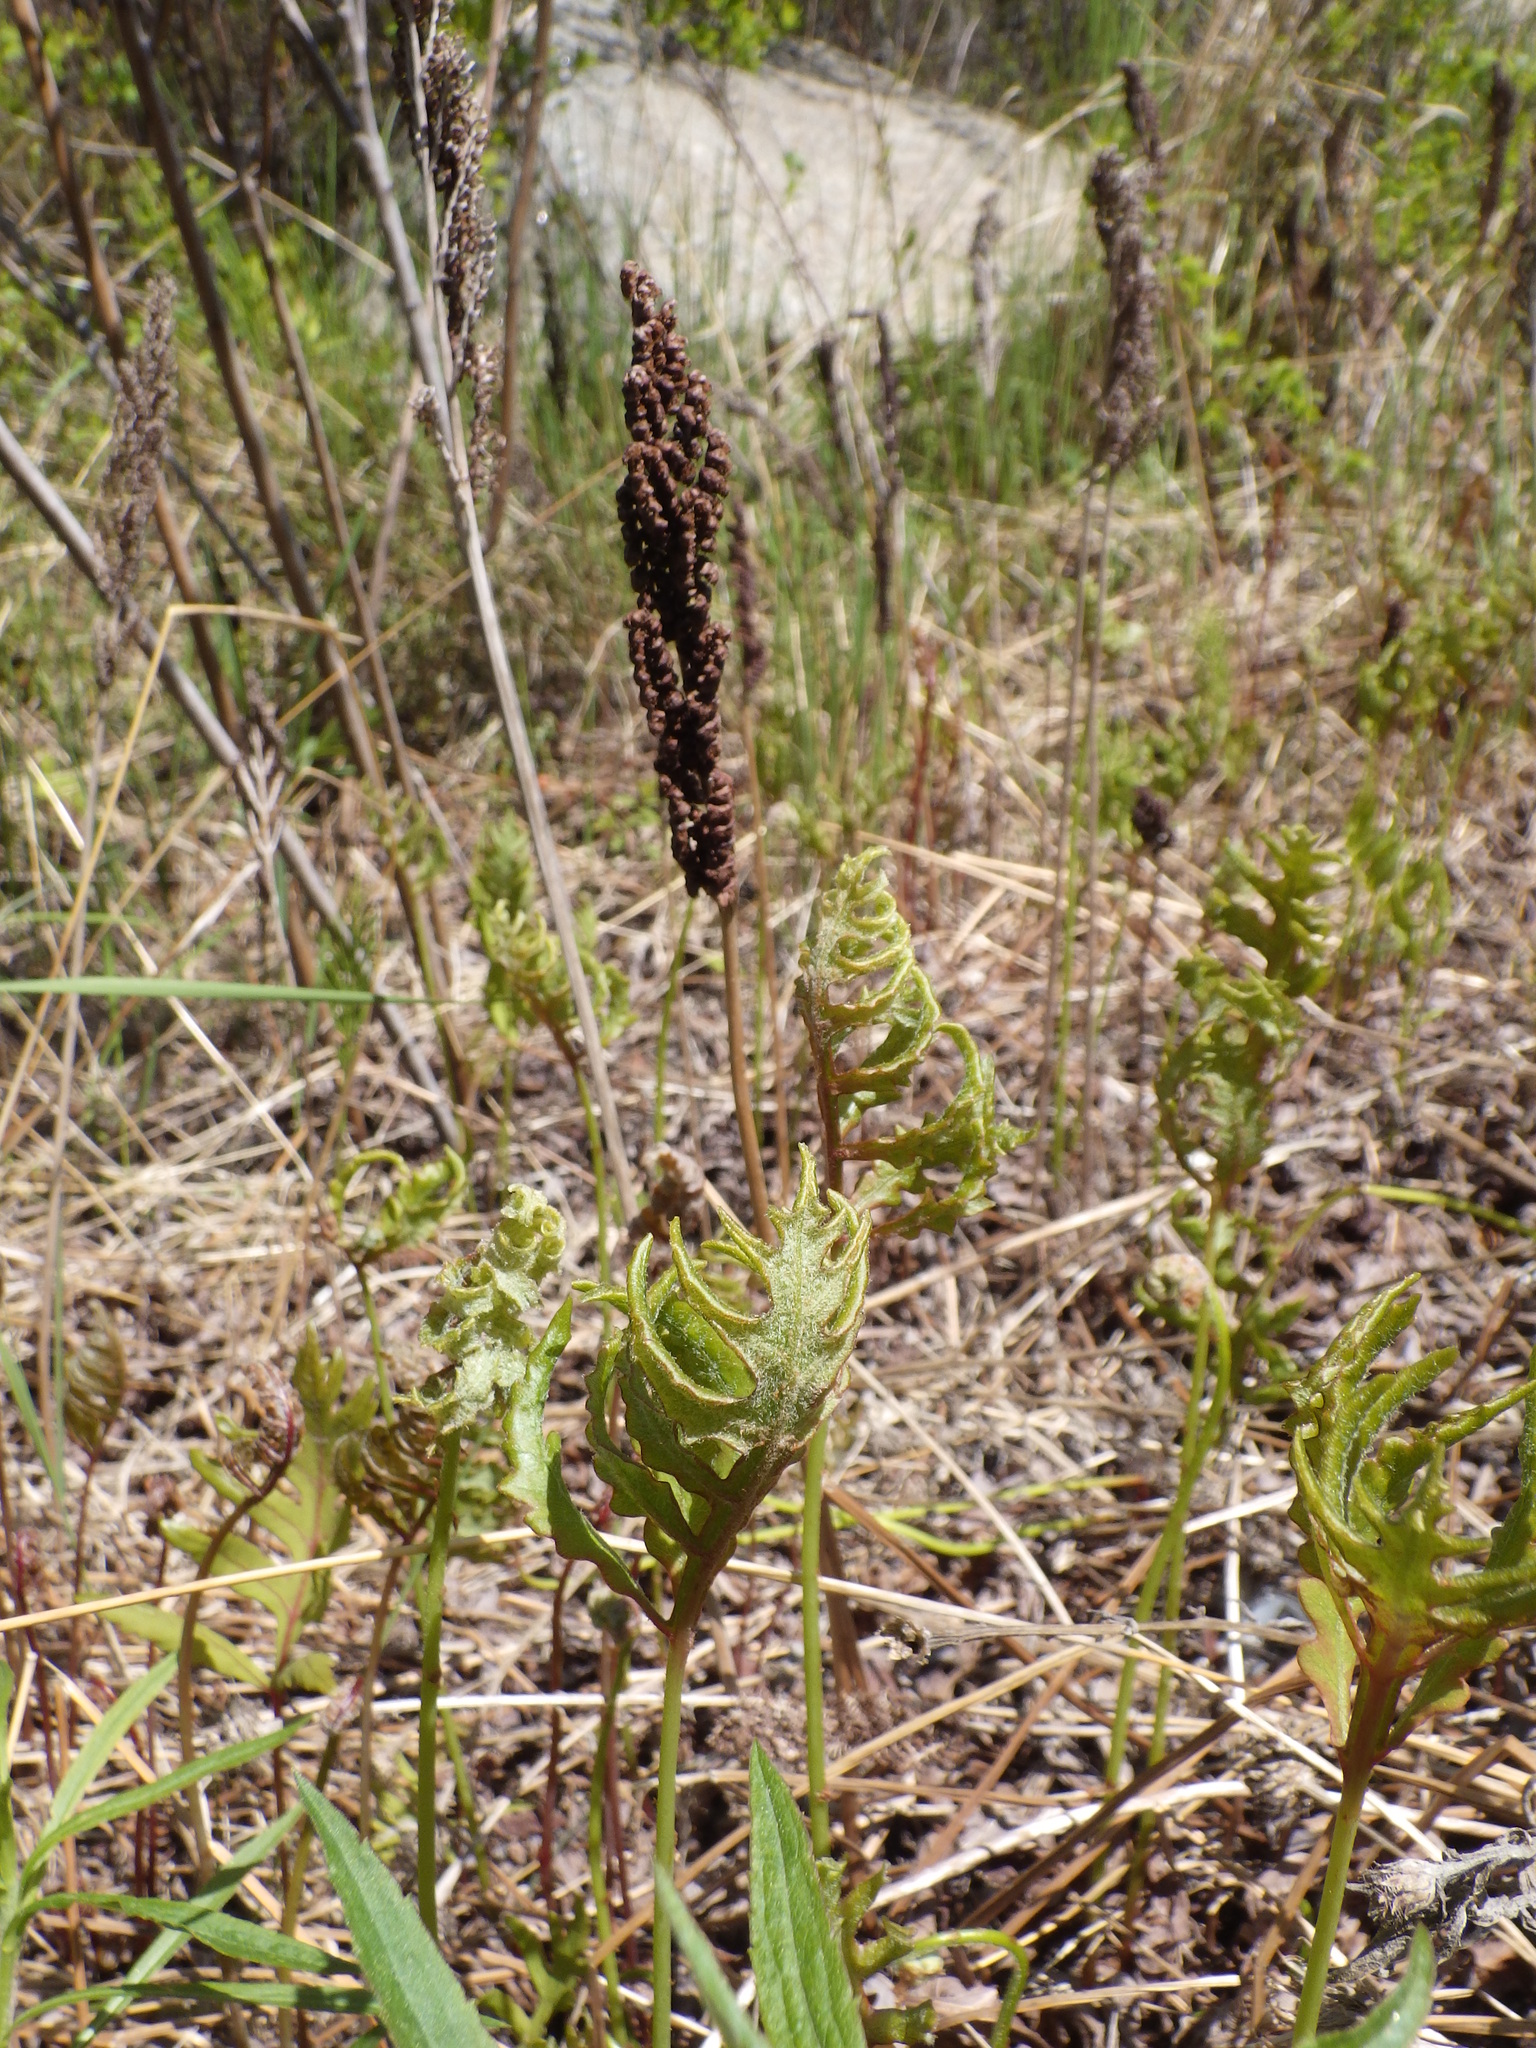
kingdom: Plantae
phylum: Tracheophyta
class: Polypodiopsida
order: Polypodiales
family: Onocleaceae
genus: Onoclea
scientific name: Onoclea sensibilis
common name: Sensitive fern
